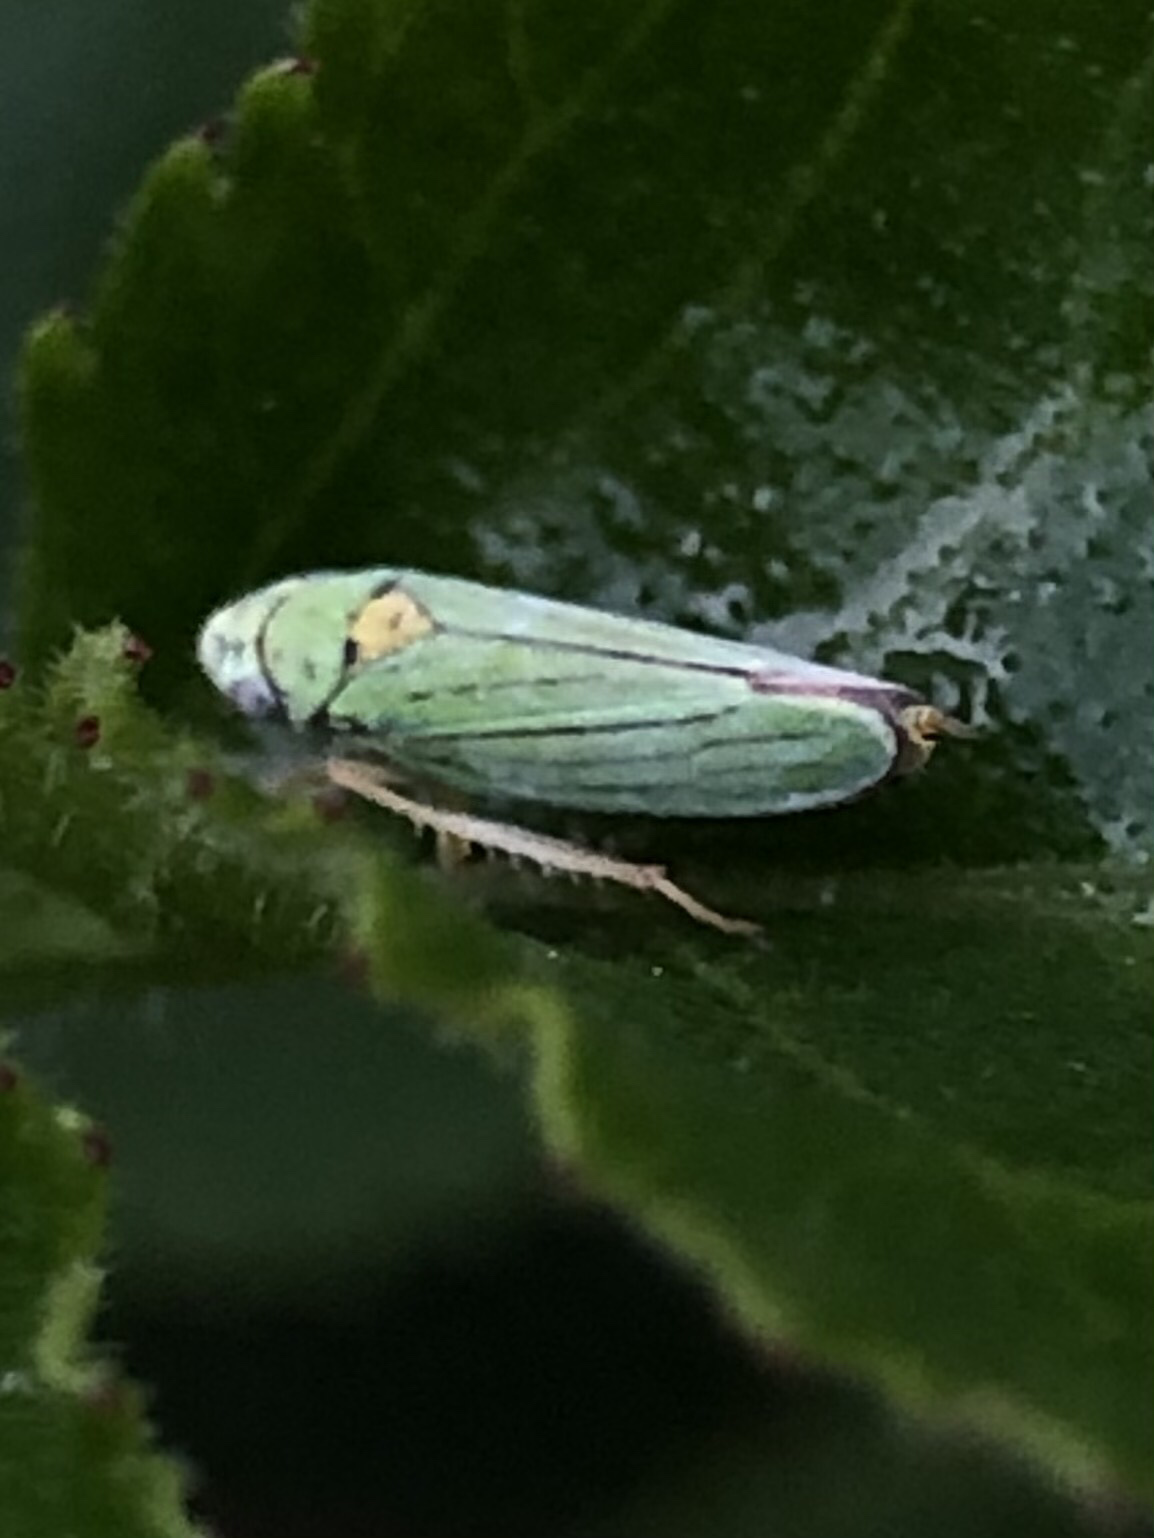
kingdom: Animalia
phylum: Arthropoda
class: Insecta
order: Hemiptera
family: Cicadellidae
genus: Graphocephala
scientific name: Graphocephala atropunctata
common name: Blue-green sharpshooter
